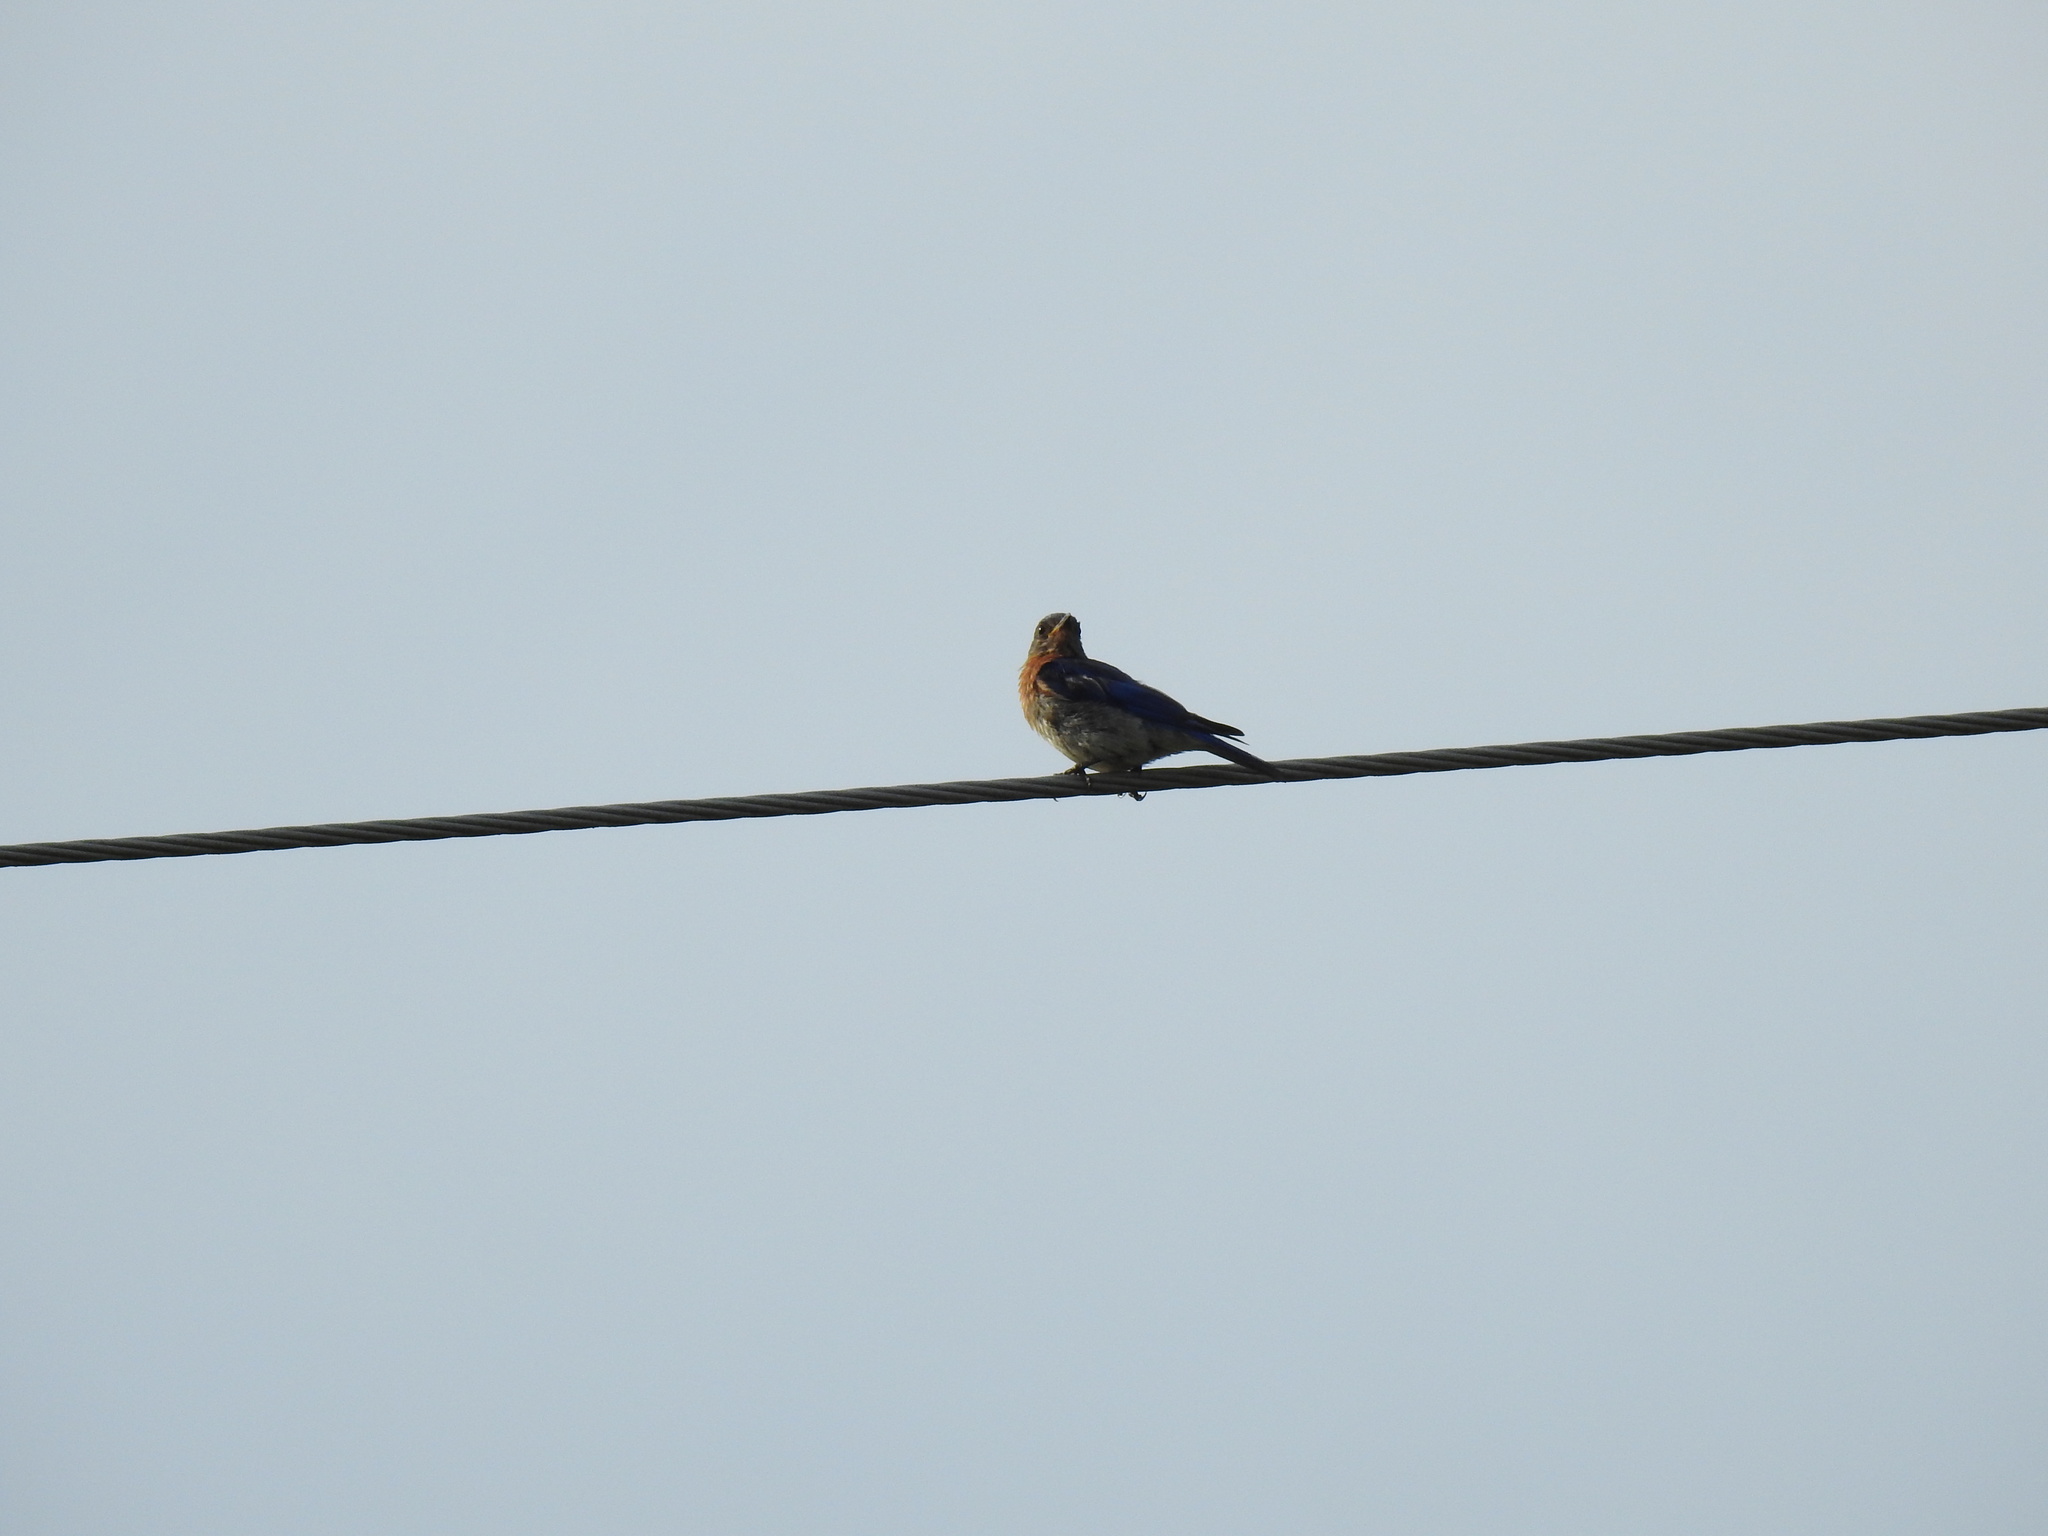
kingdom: Animalia
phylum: Chordata
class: Aves
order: Passeriformes
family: Turdidae
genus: Sialia
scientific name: Sialia sialis
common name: Eastern bluebird
